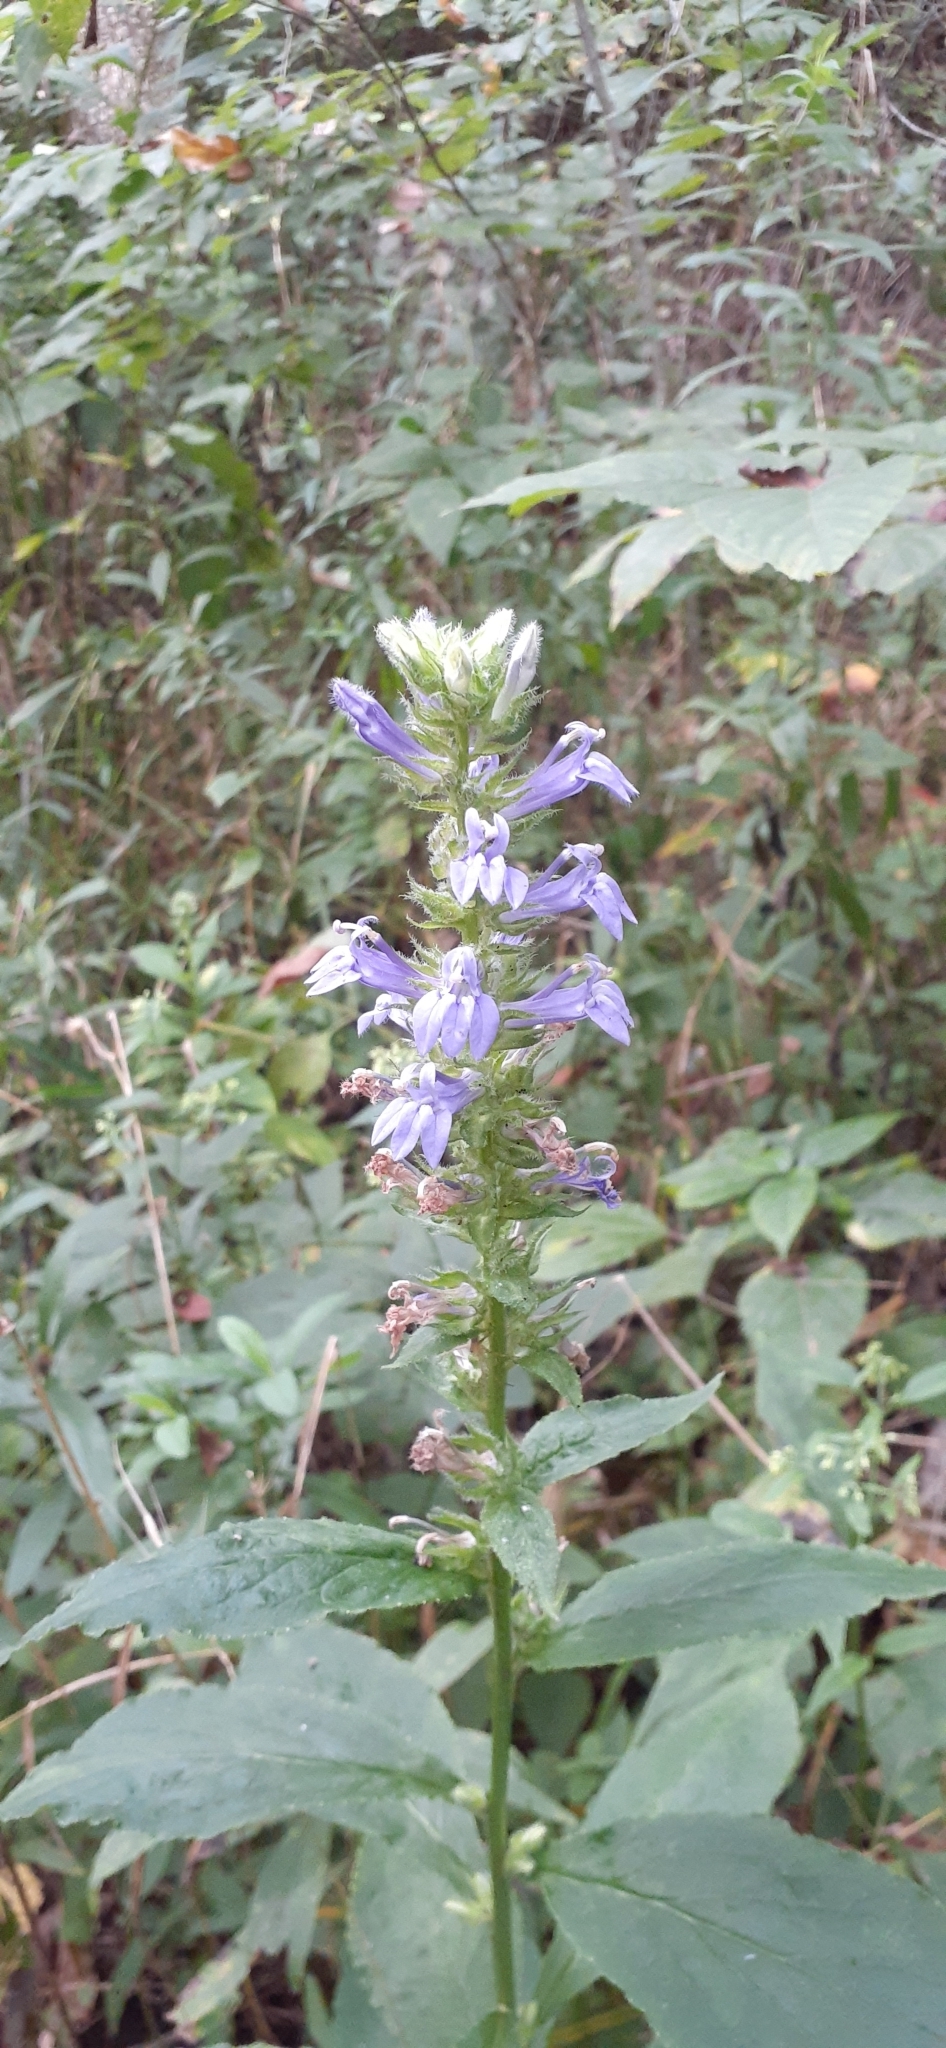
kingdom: Plantae
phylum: Tracheophyta
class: Magnoliopsida
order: Asterales
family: Campanulaceae
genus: Lobelia
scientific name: Lobelia siphilitica
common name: Great lobelia
